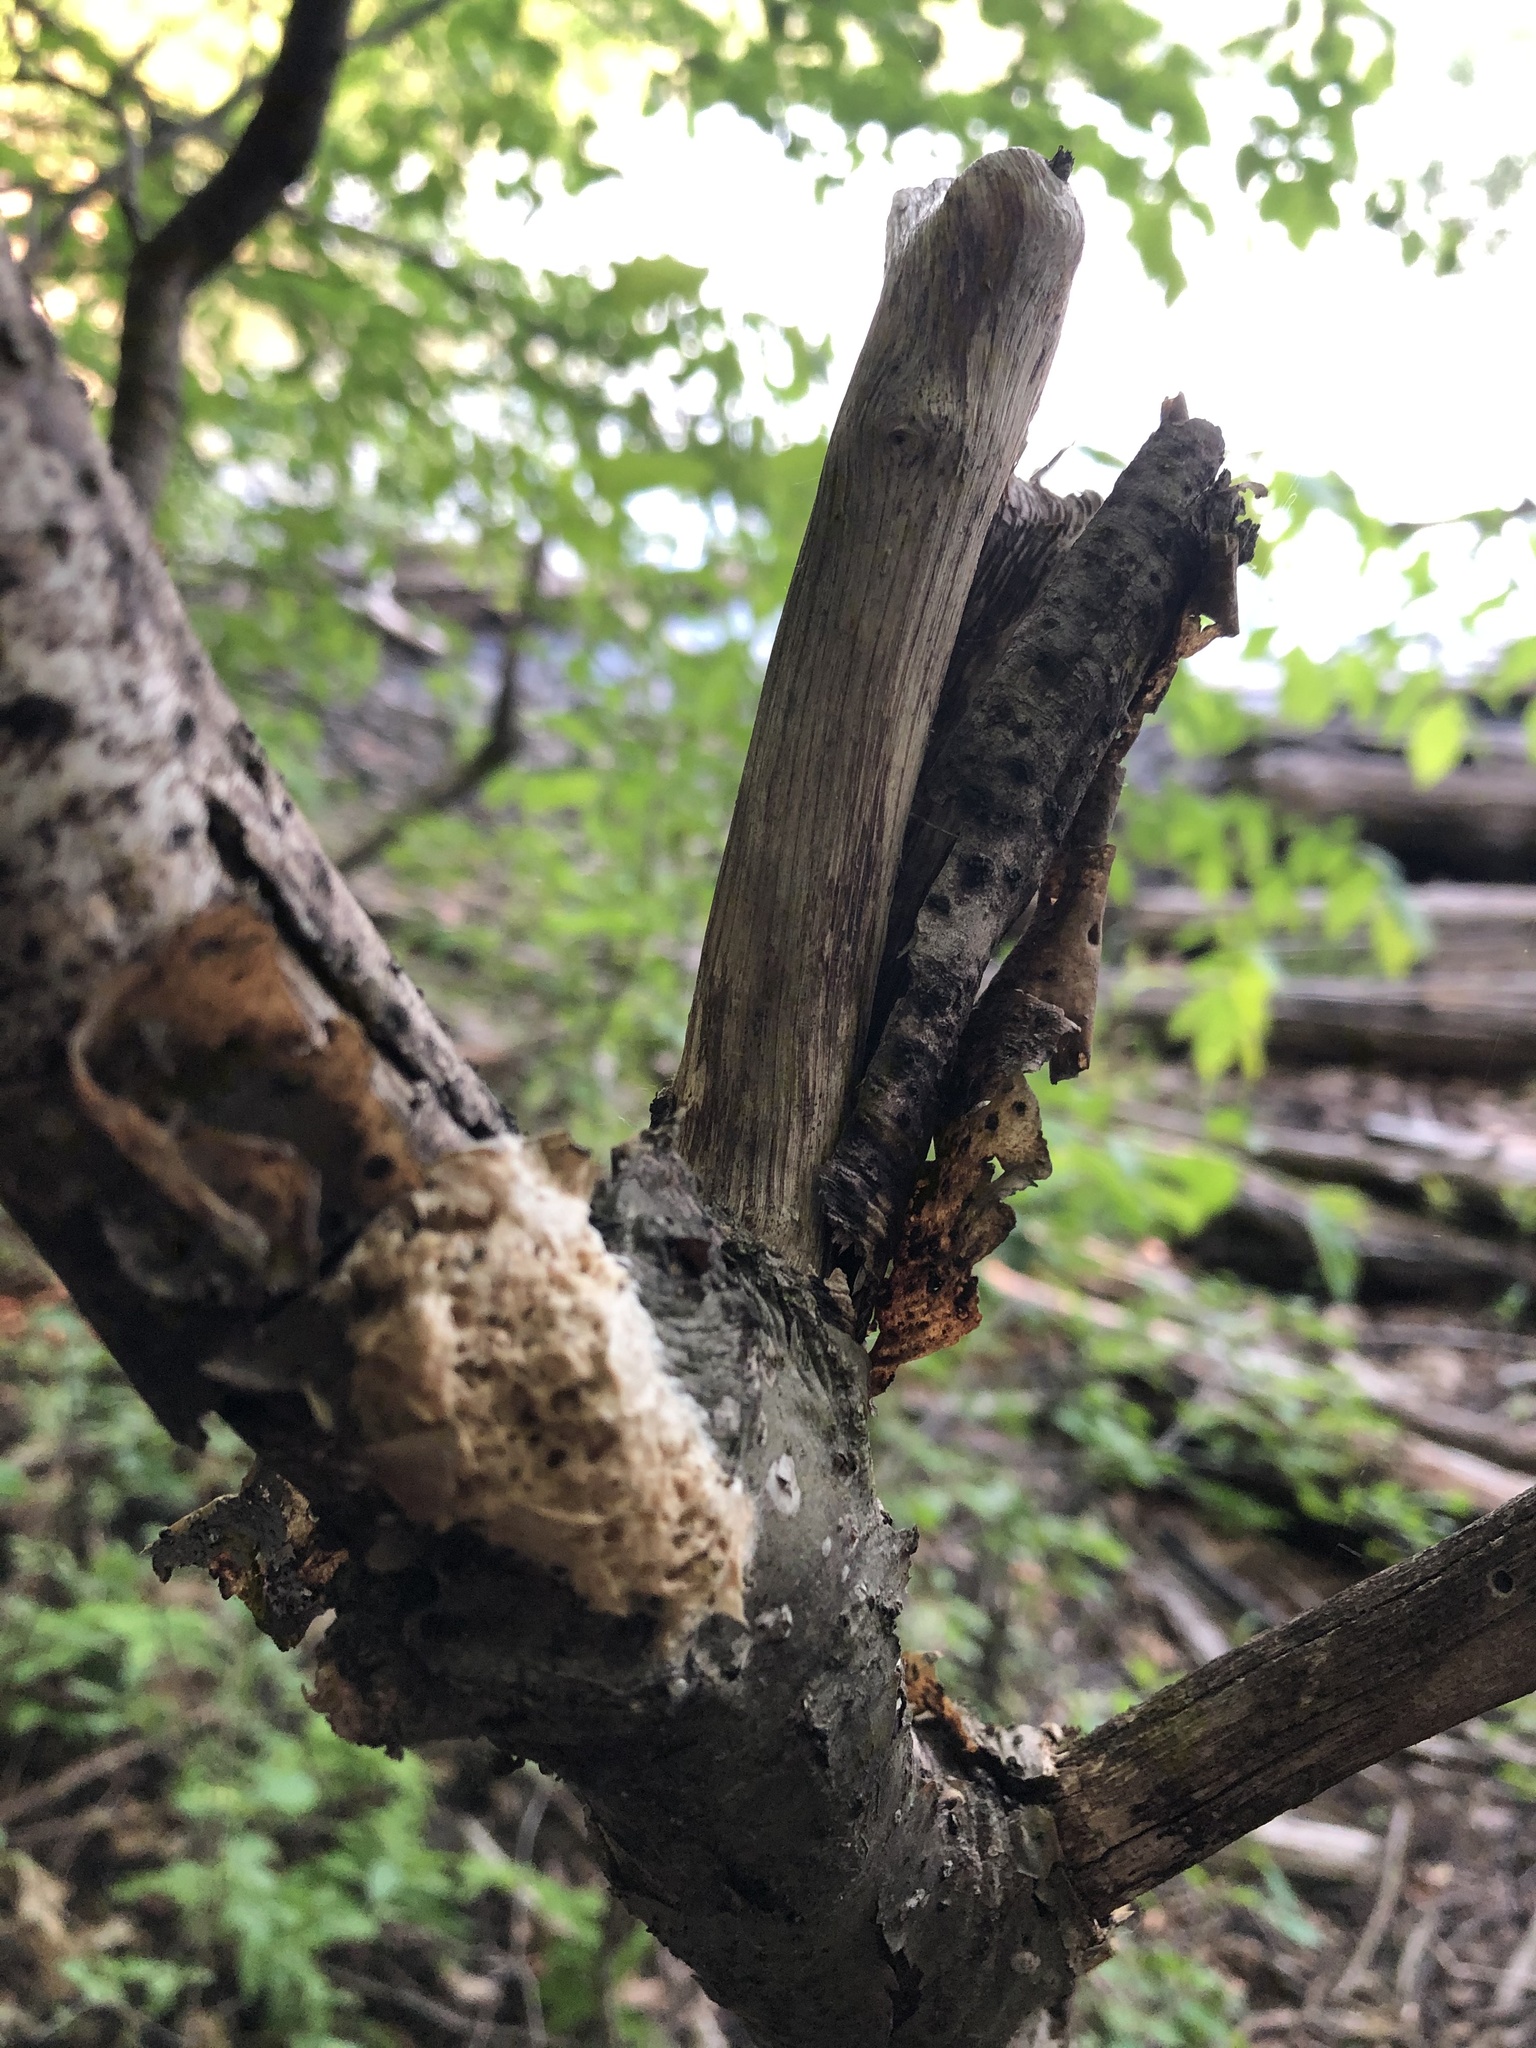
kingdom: Animalia
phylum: Arthropoda
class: Insecta
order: Lepidoptera
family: Erebidae
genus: Lymantria
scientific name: Lymantria dispar
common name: Gypsy moth
